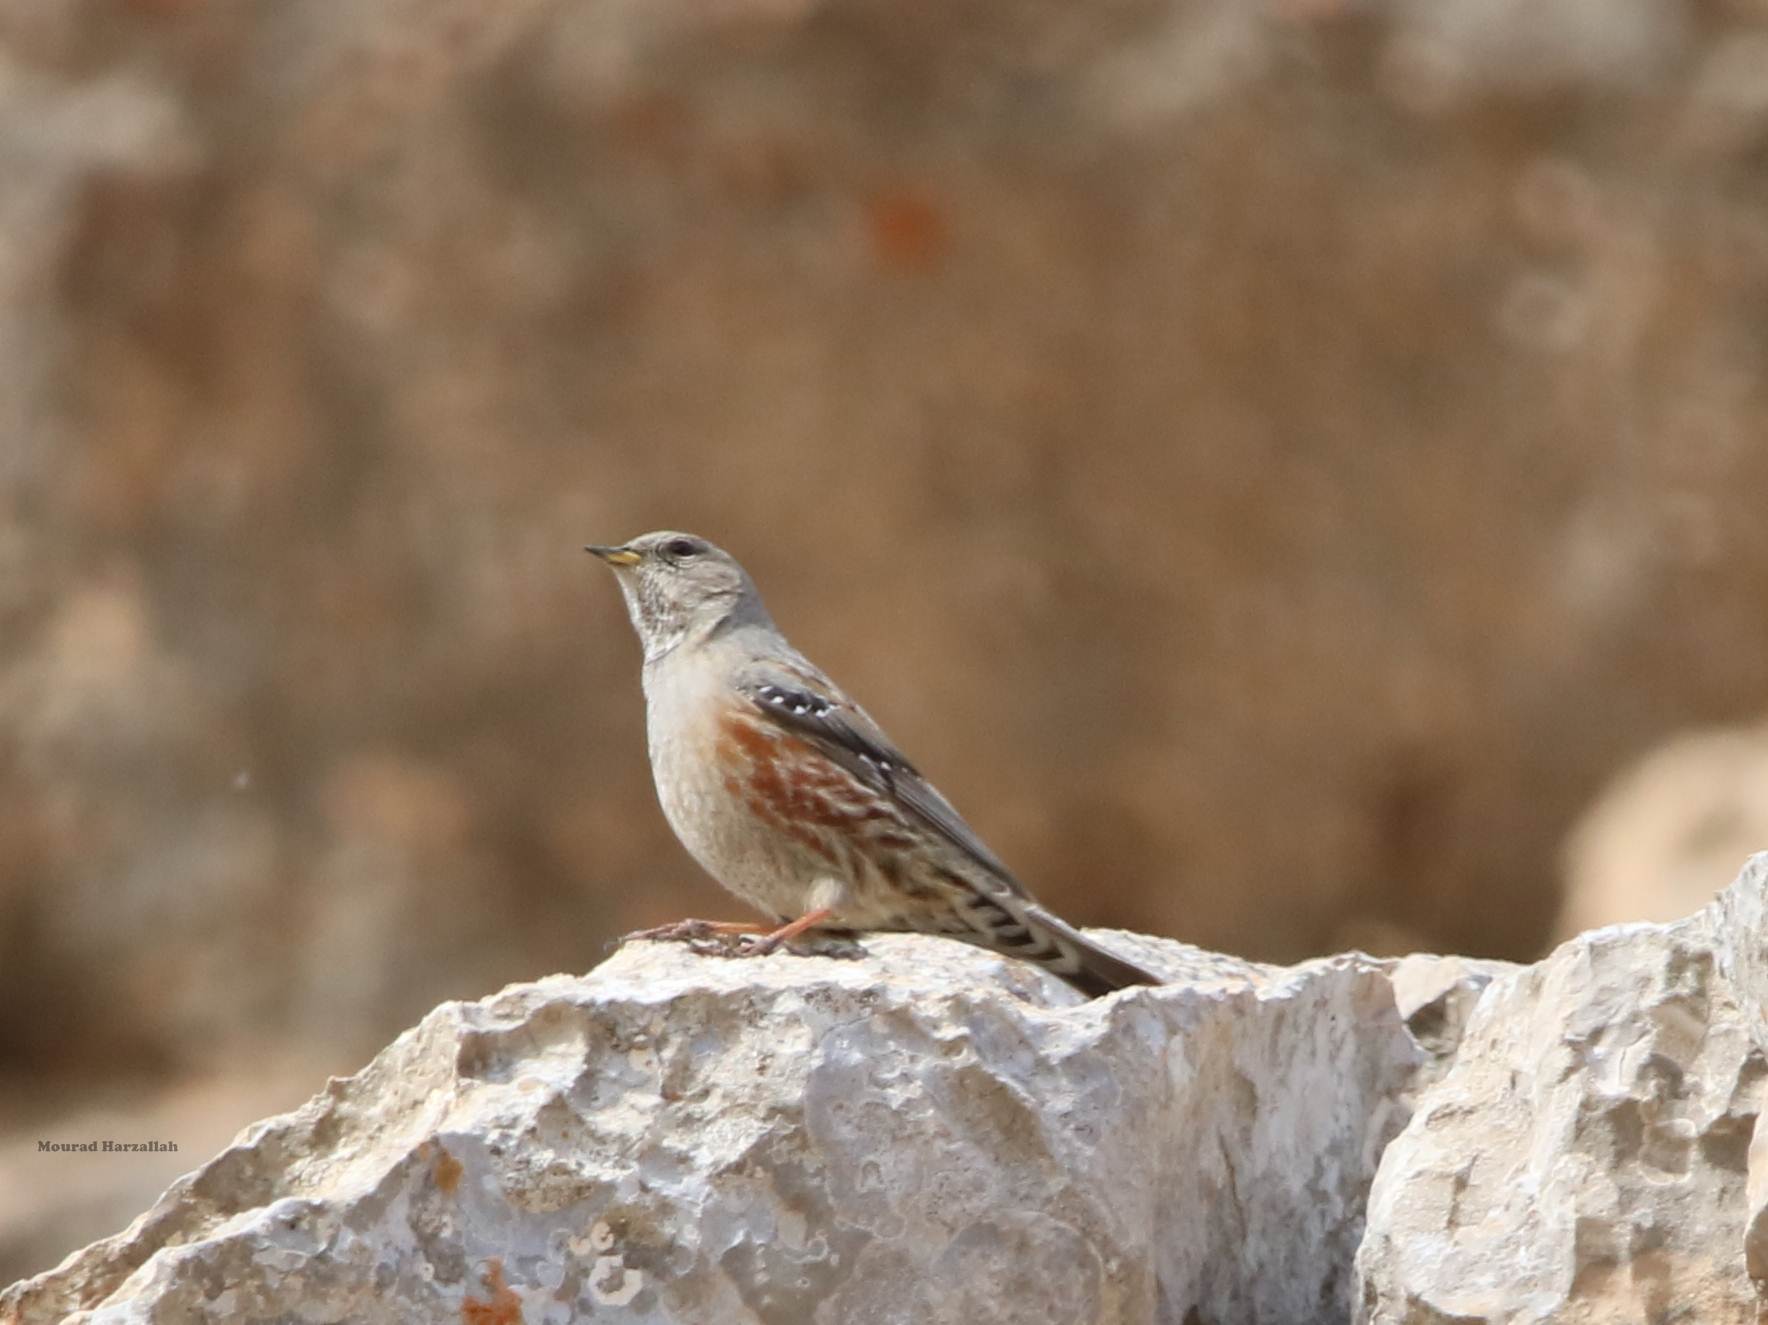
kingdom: Animalia
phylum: Chordata
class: Aves
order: Passeriformes
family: Prunellidae
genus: Prunella
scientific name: Prunella collaris
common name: Alpine accentor
